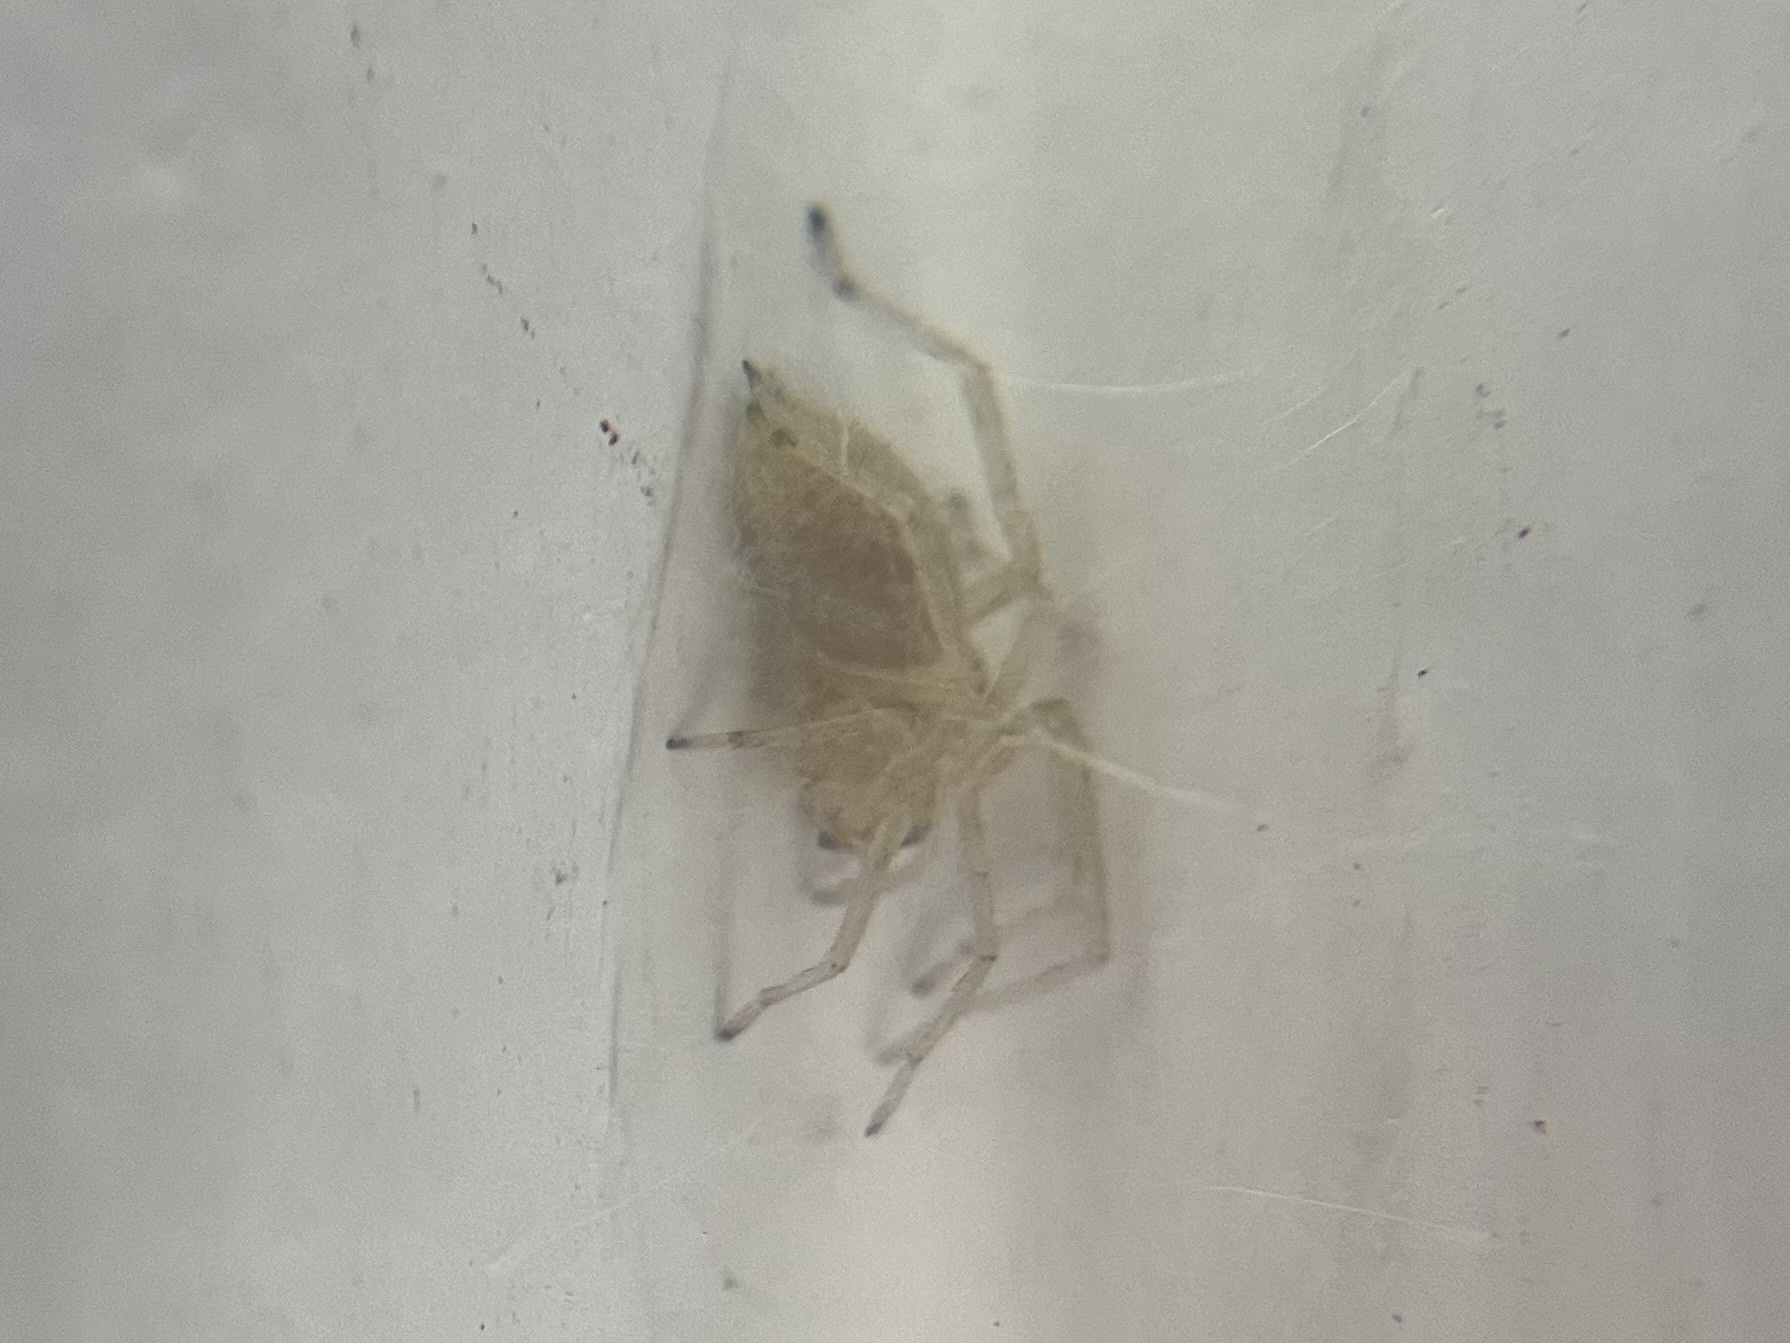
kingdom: Animalia
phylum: Arthropoda
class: Arachnida
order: Araneae
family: Cheiracanthiidae
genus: Cheiracanthium
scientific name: Cheiracanthium
